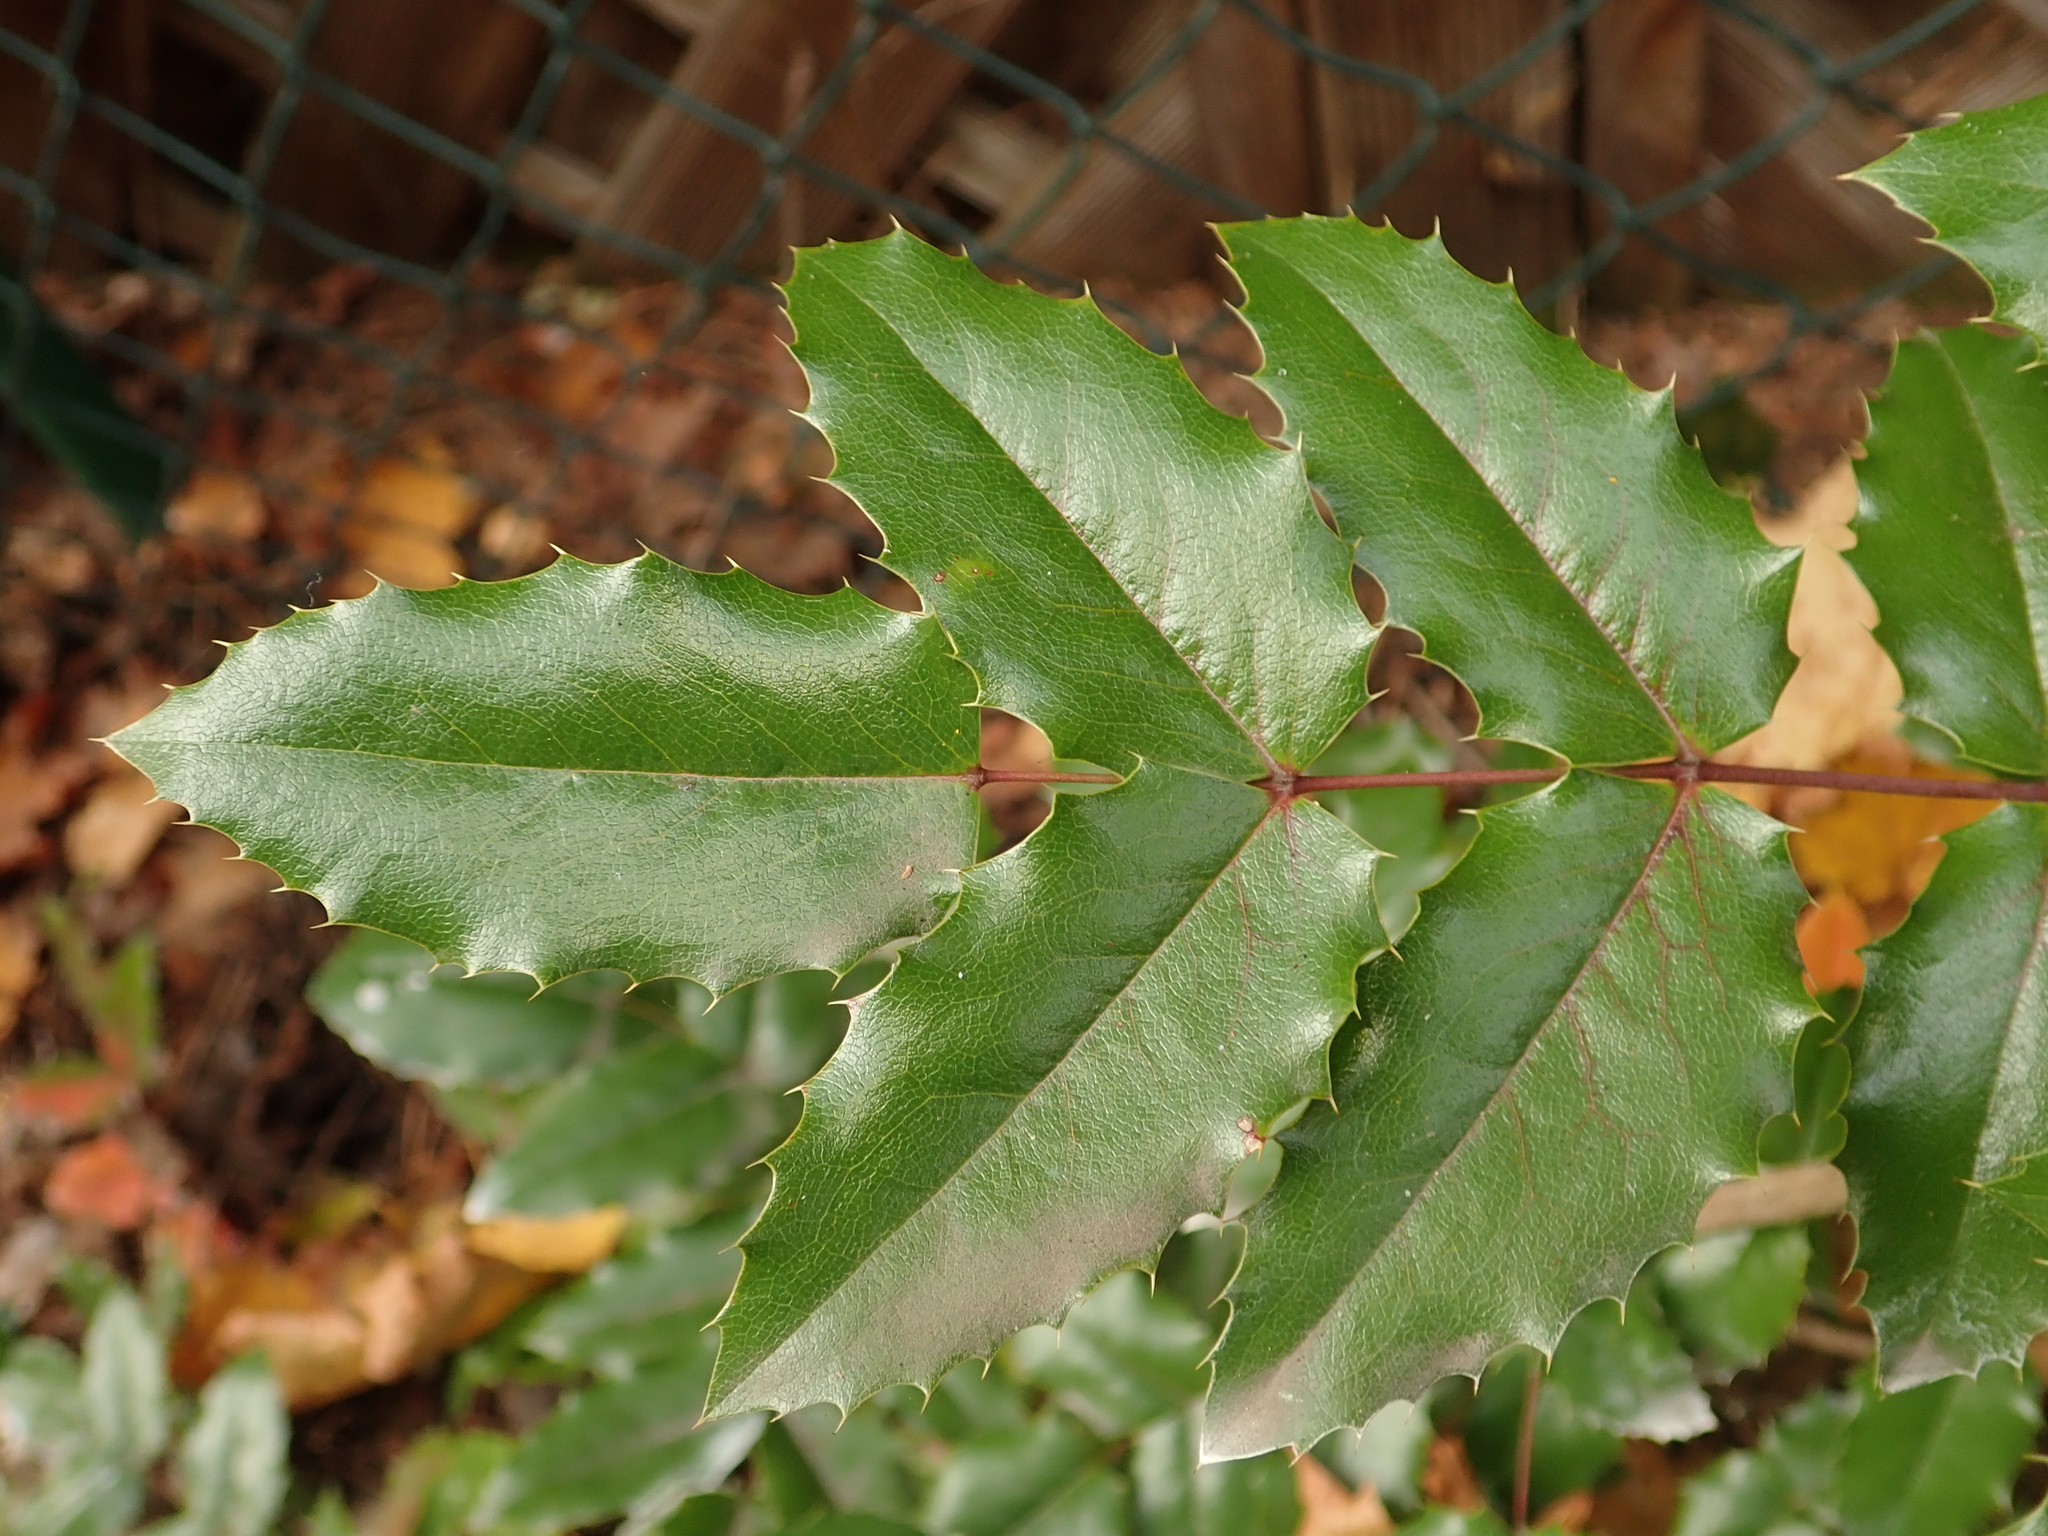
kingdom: Plantae
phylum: Tracheophyta
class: Magnoliopsida
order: Ranunculales
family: Berberidaceae
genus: Mahonia
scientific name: Mahonia aquifolium
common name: Oregon-grape
